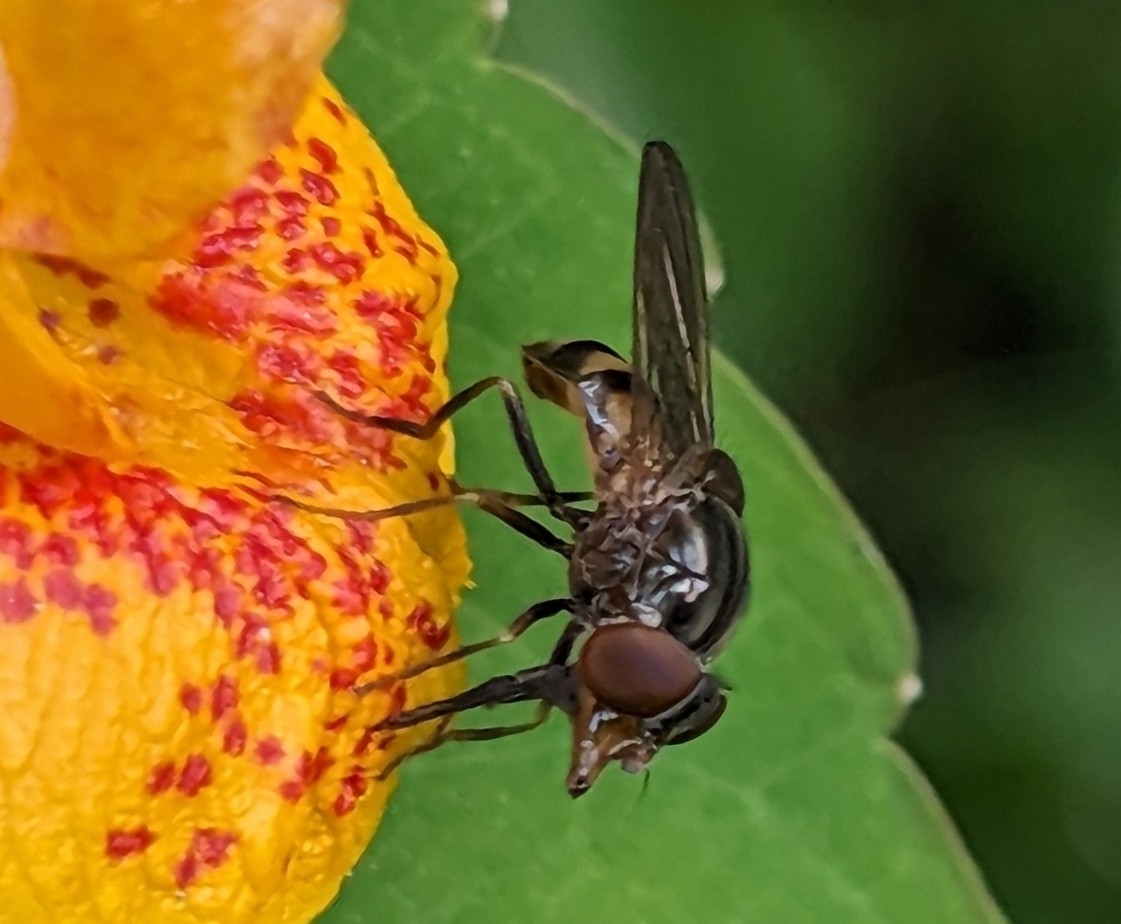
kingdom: Animalia
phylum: Arthropoda
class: Insecta
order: Diptera
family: Syrphidae
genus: Rhingia
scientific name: Rhingia nasica
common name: American snout fly
